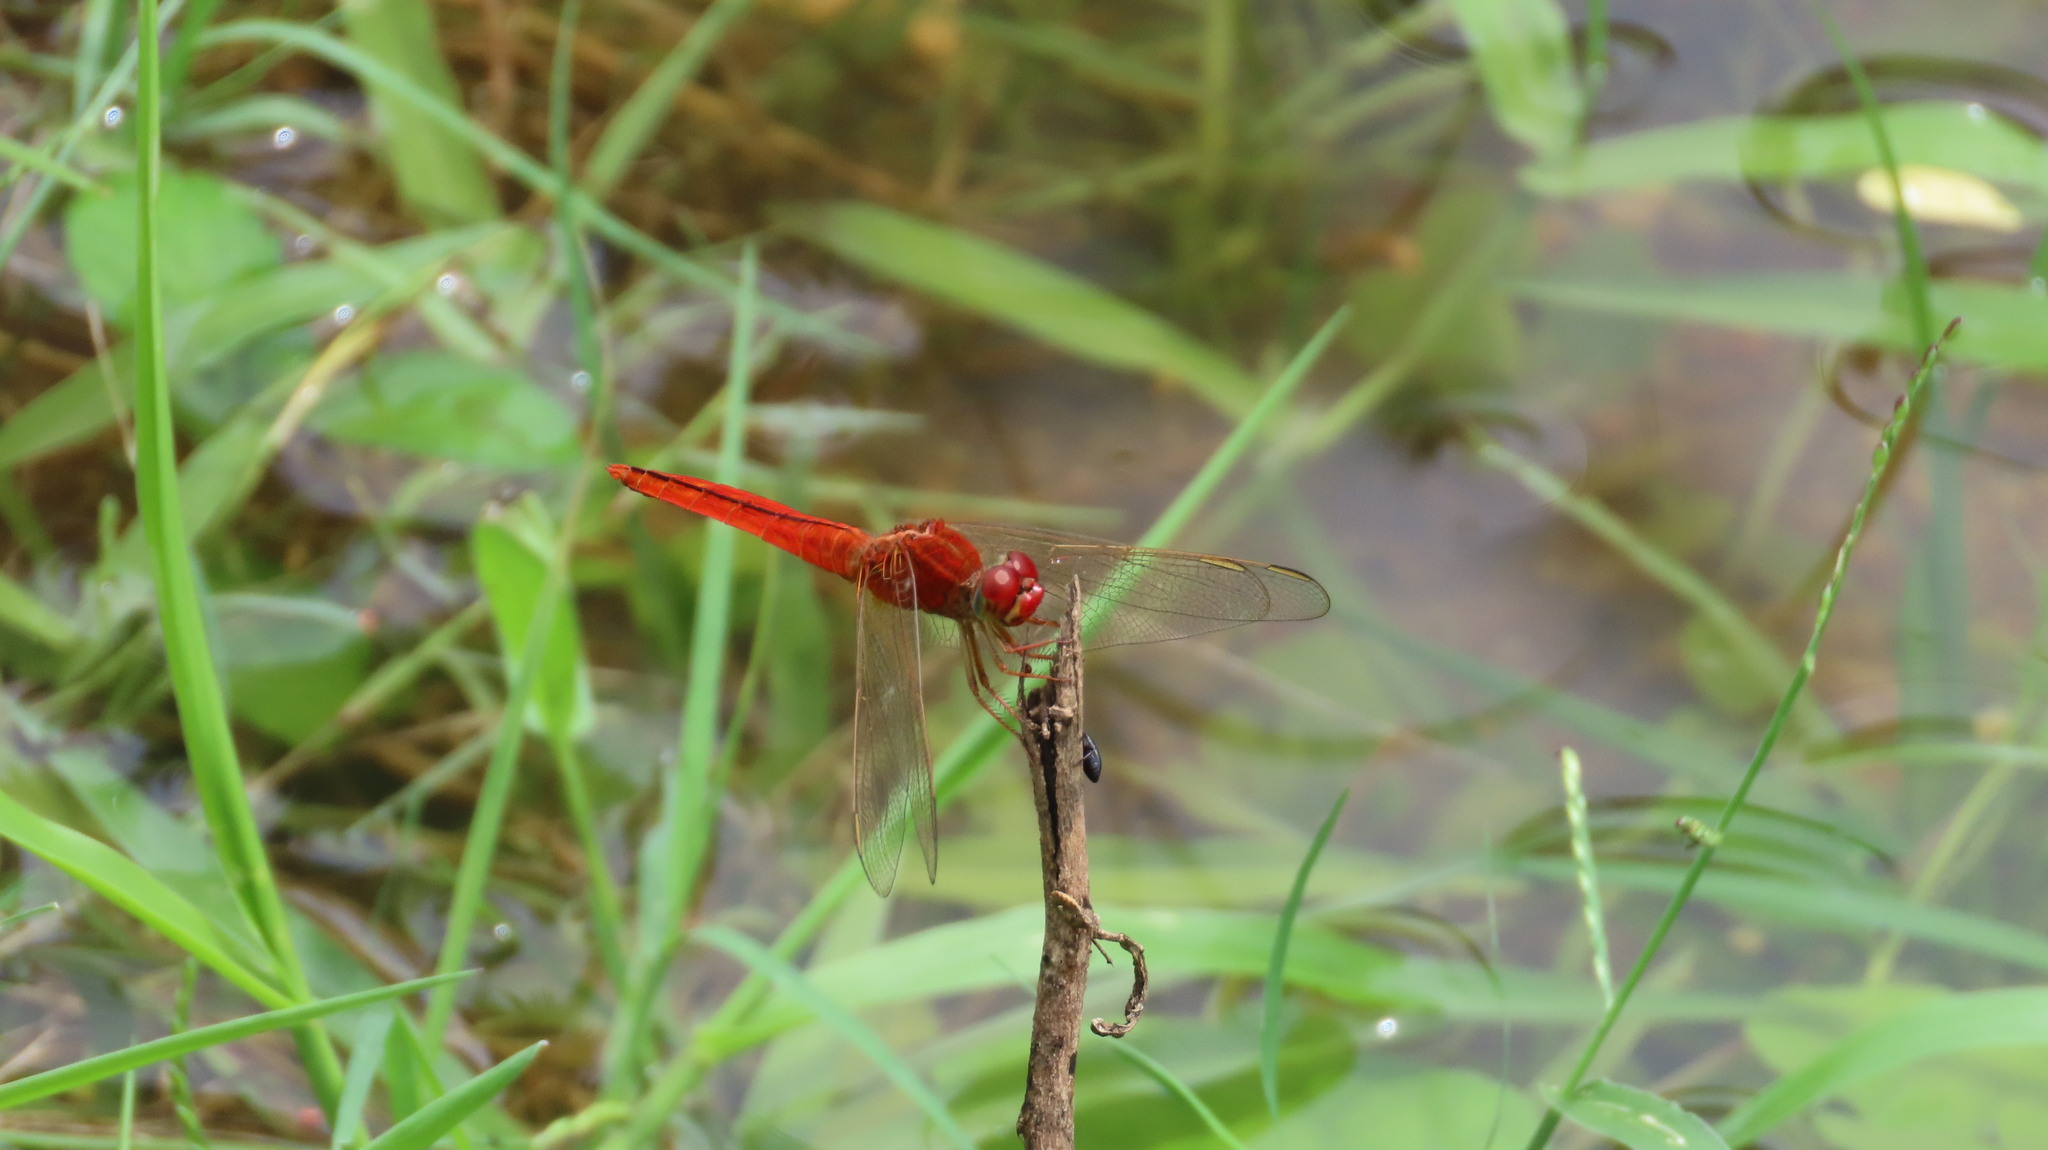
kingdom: Animalia
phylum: Arthropoda
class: Insecta
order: Odonata
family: Libellulidae
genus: Crocothemis
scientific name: Crocothemis servilia
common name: Scarlet skimmer
